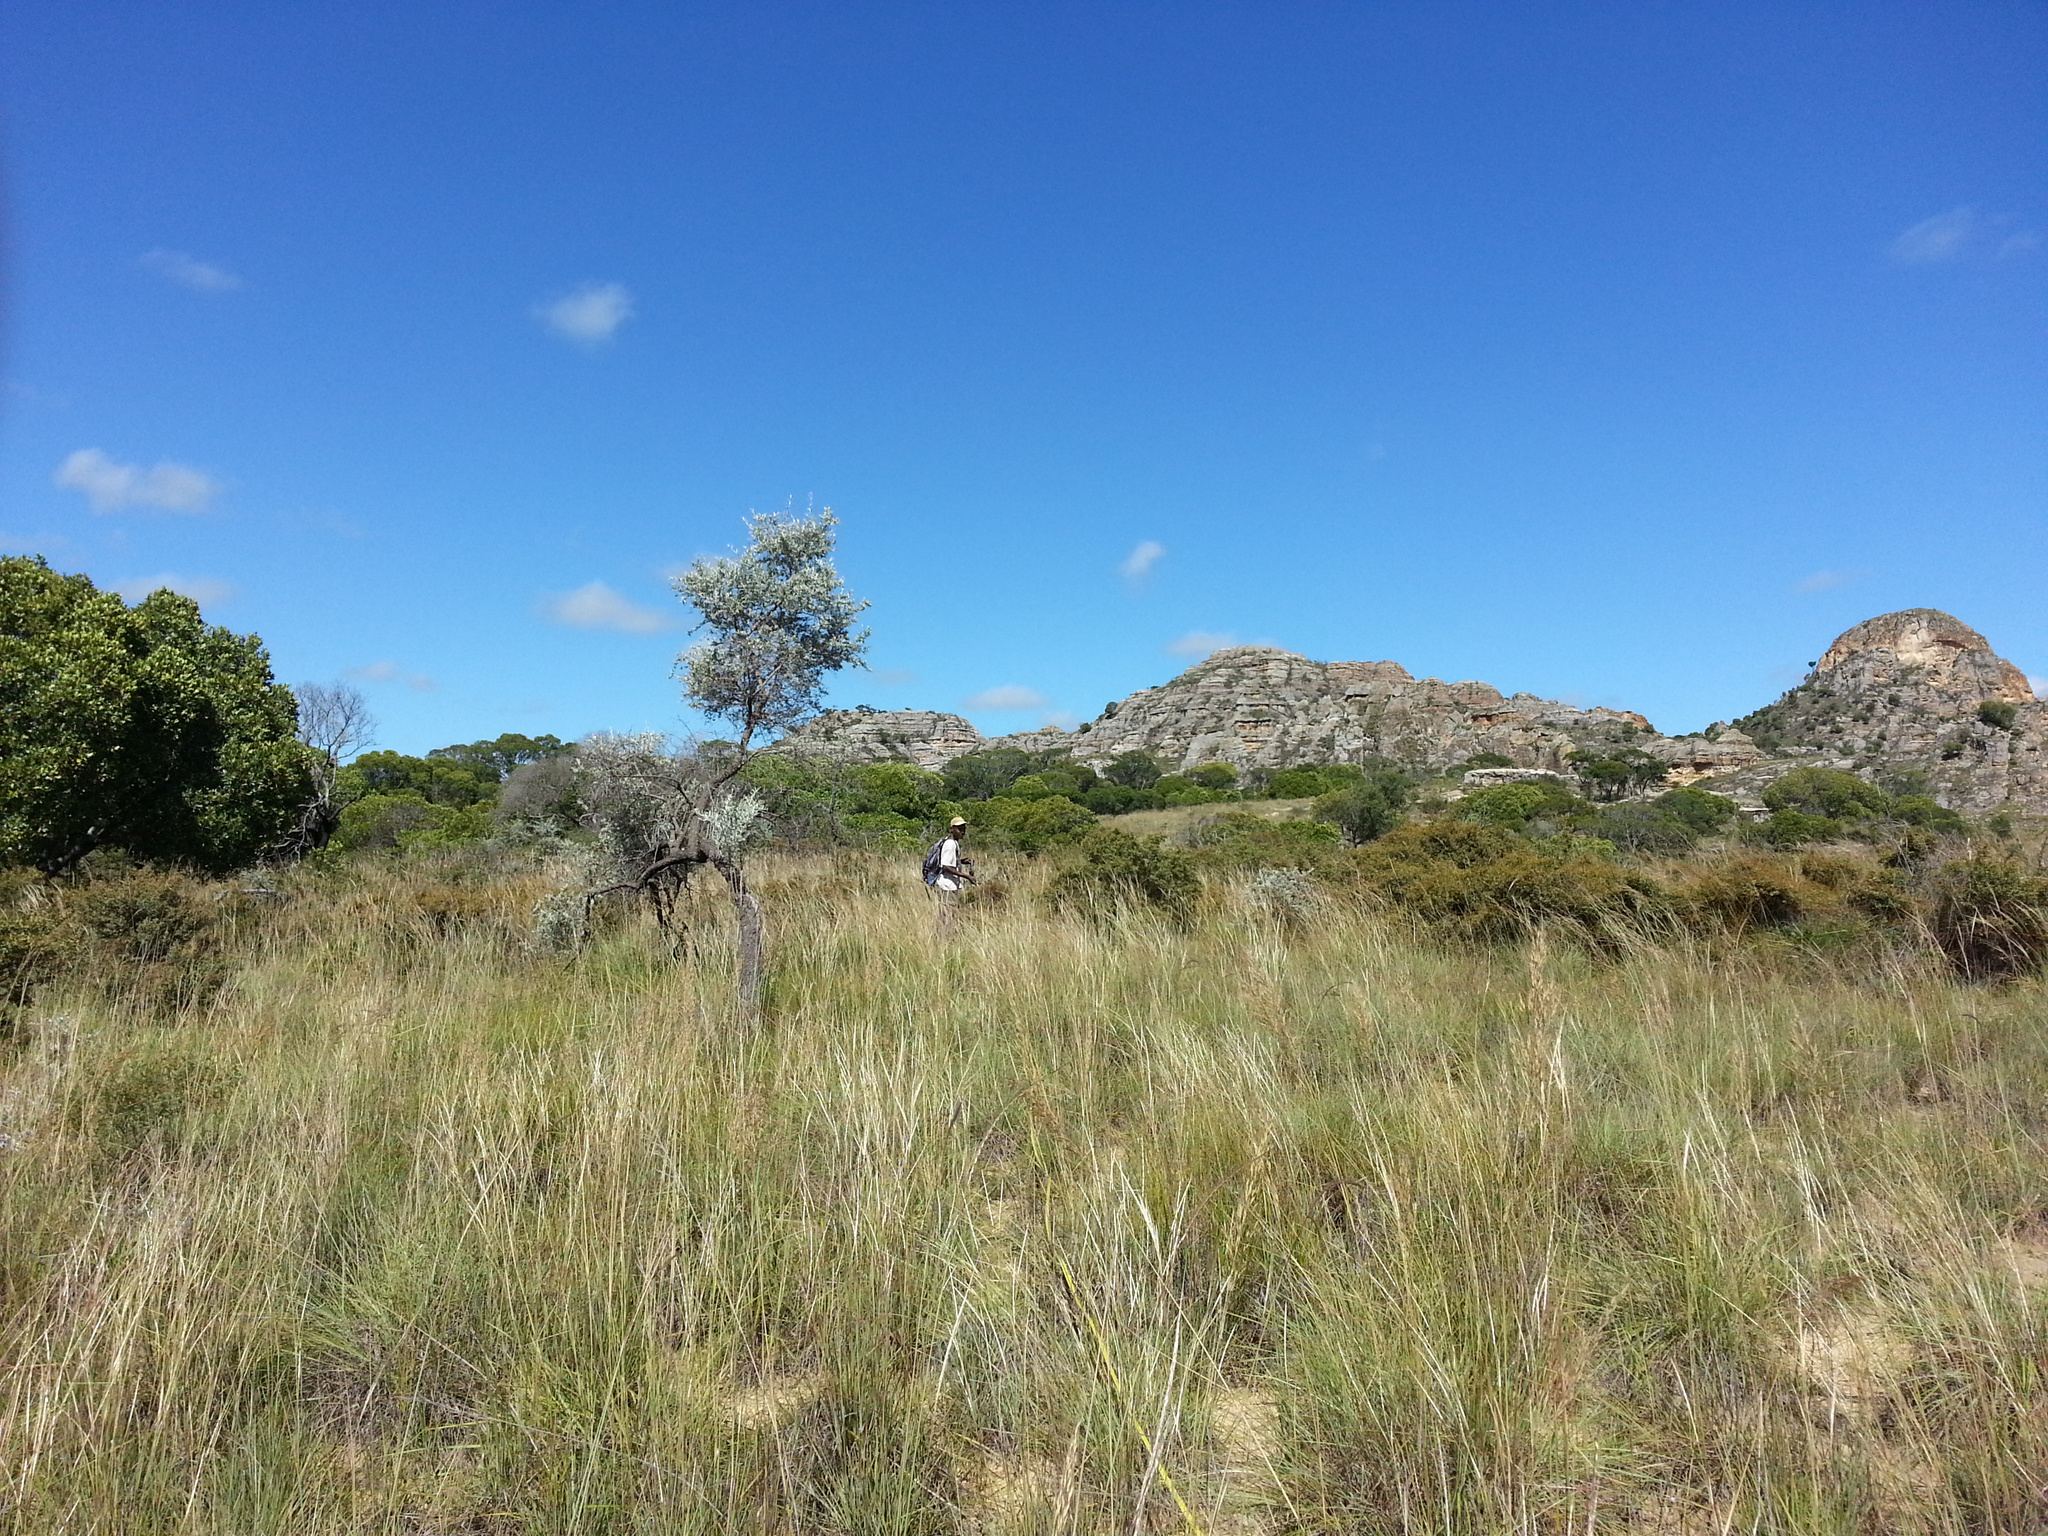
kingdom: Plantae
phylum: Tracheophyta
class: Liliopsida
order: Poales
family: Poaceae
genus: Trachypogon
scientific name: Trachypogon spicatus
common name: Crinkle-awn
